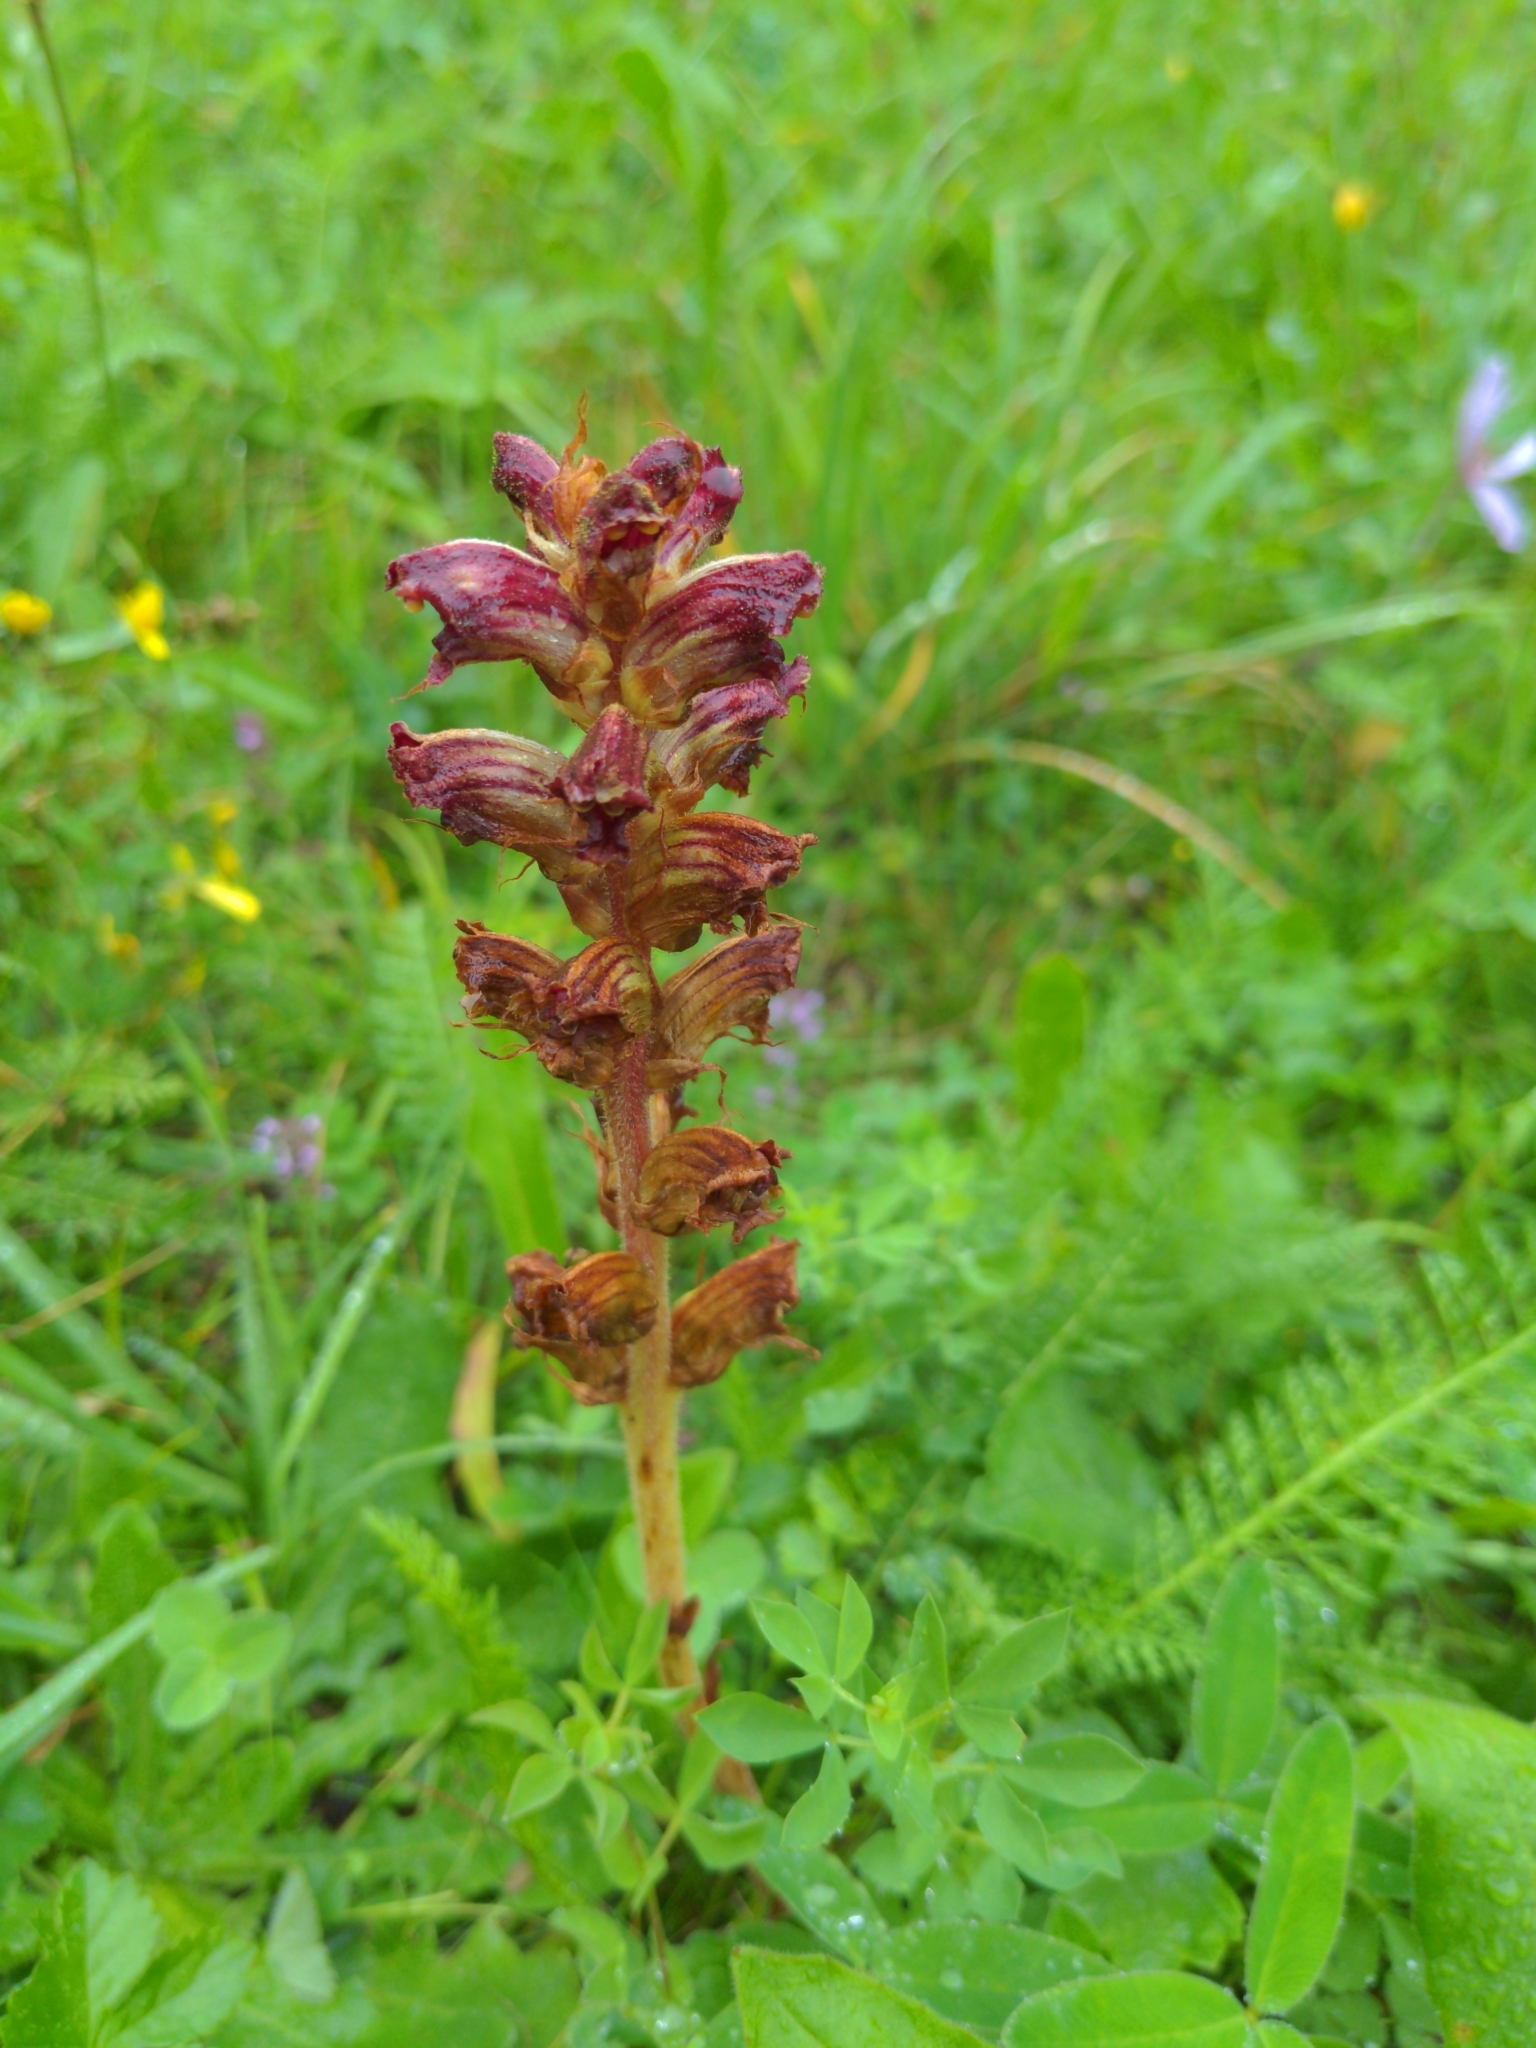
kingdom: Plantae
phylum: Tracheophyta
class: Magnoliopsida
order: Lamiales
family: Orobanchaceae
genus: Orobanche
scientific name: Orobanche gracilis
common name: Slender broomrape
